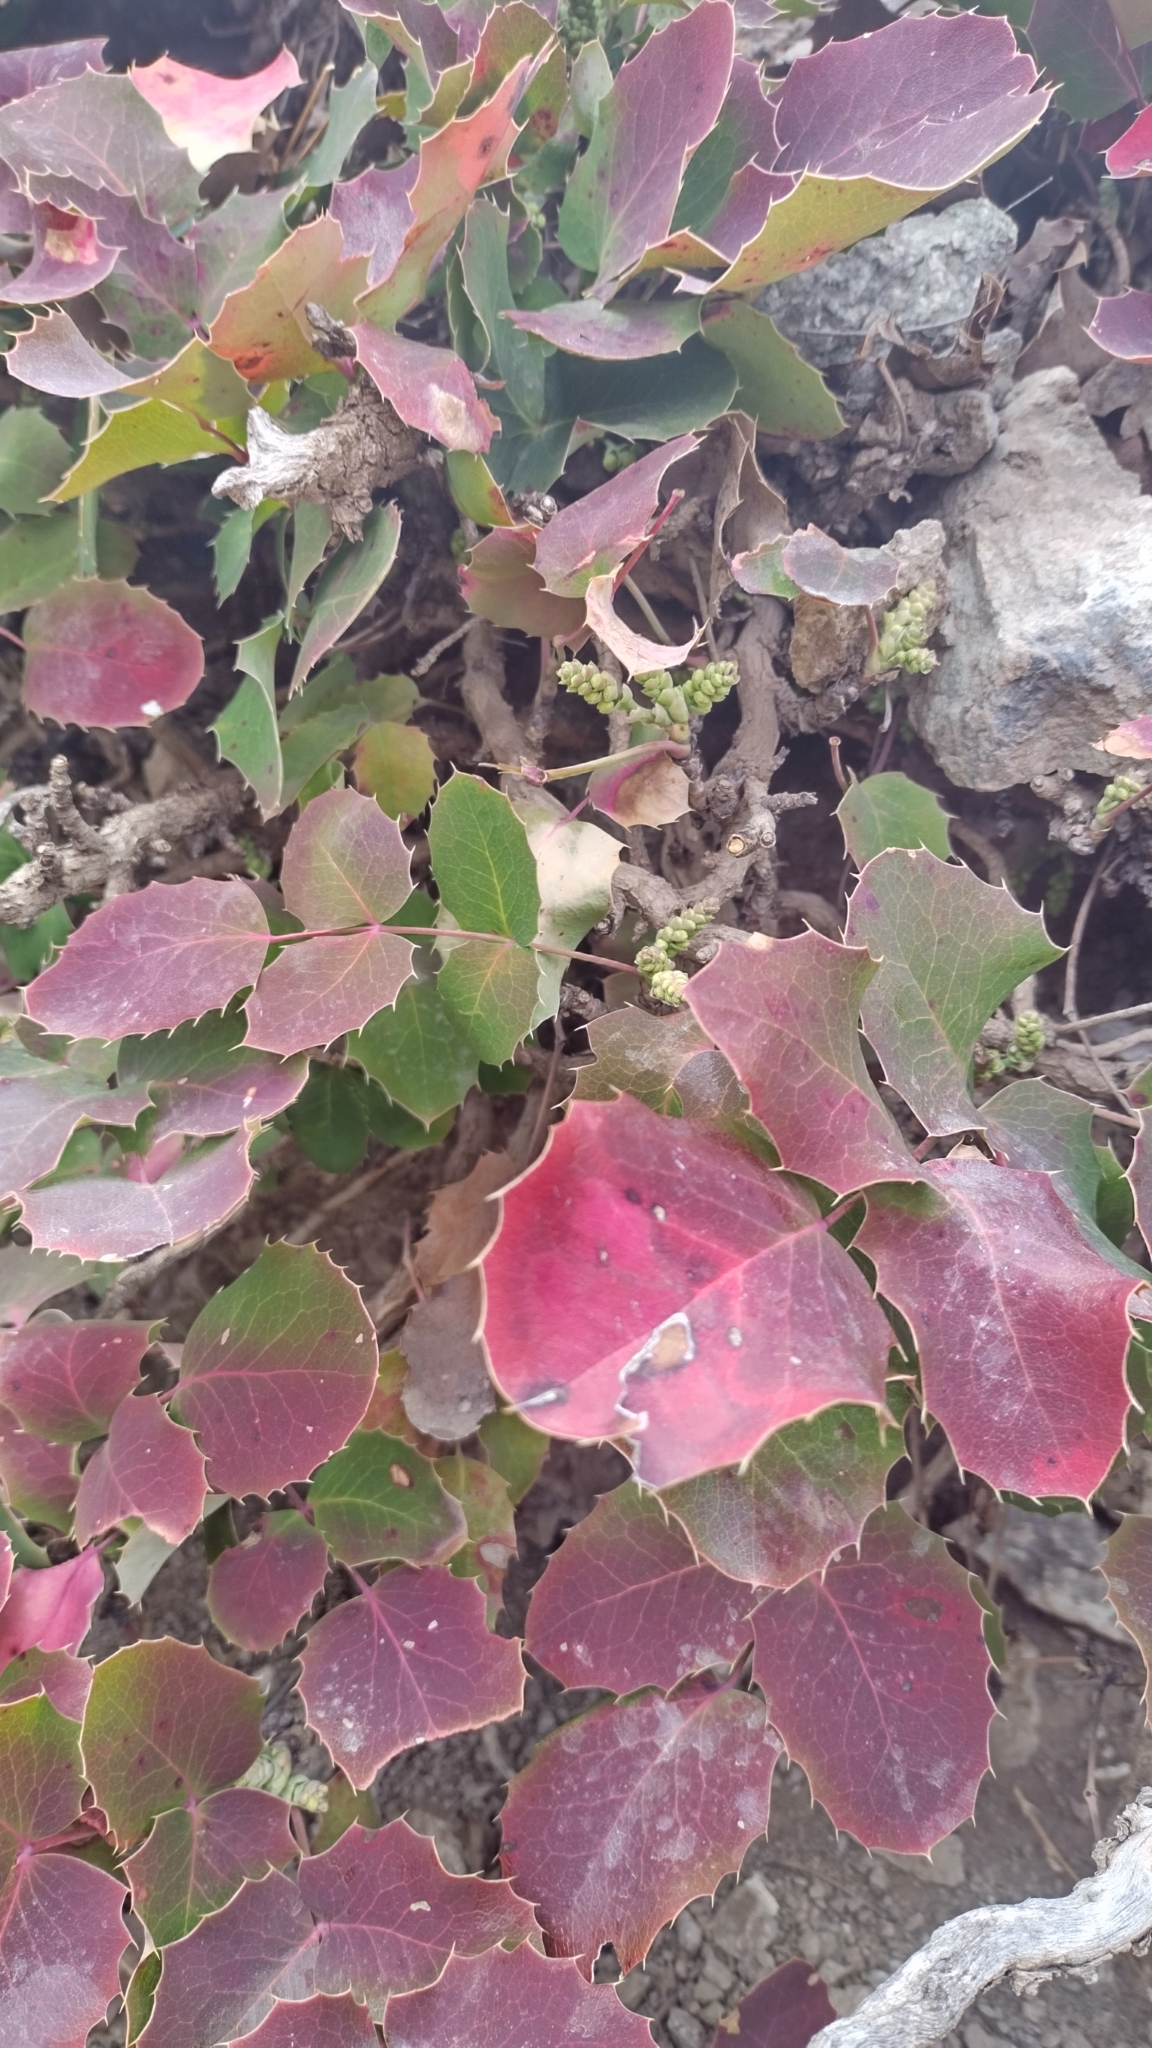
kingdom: Plantae
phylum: Tracheophyta
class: Magnoliopsida
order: Ranunculales
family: Berberidaceae
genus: Mahonia
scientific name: Mahonia repens
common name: Creeping oregon-grape
